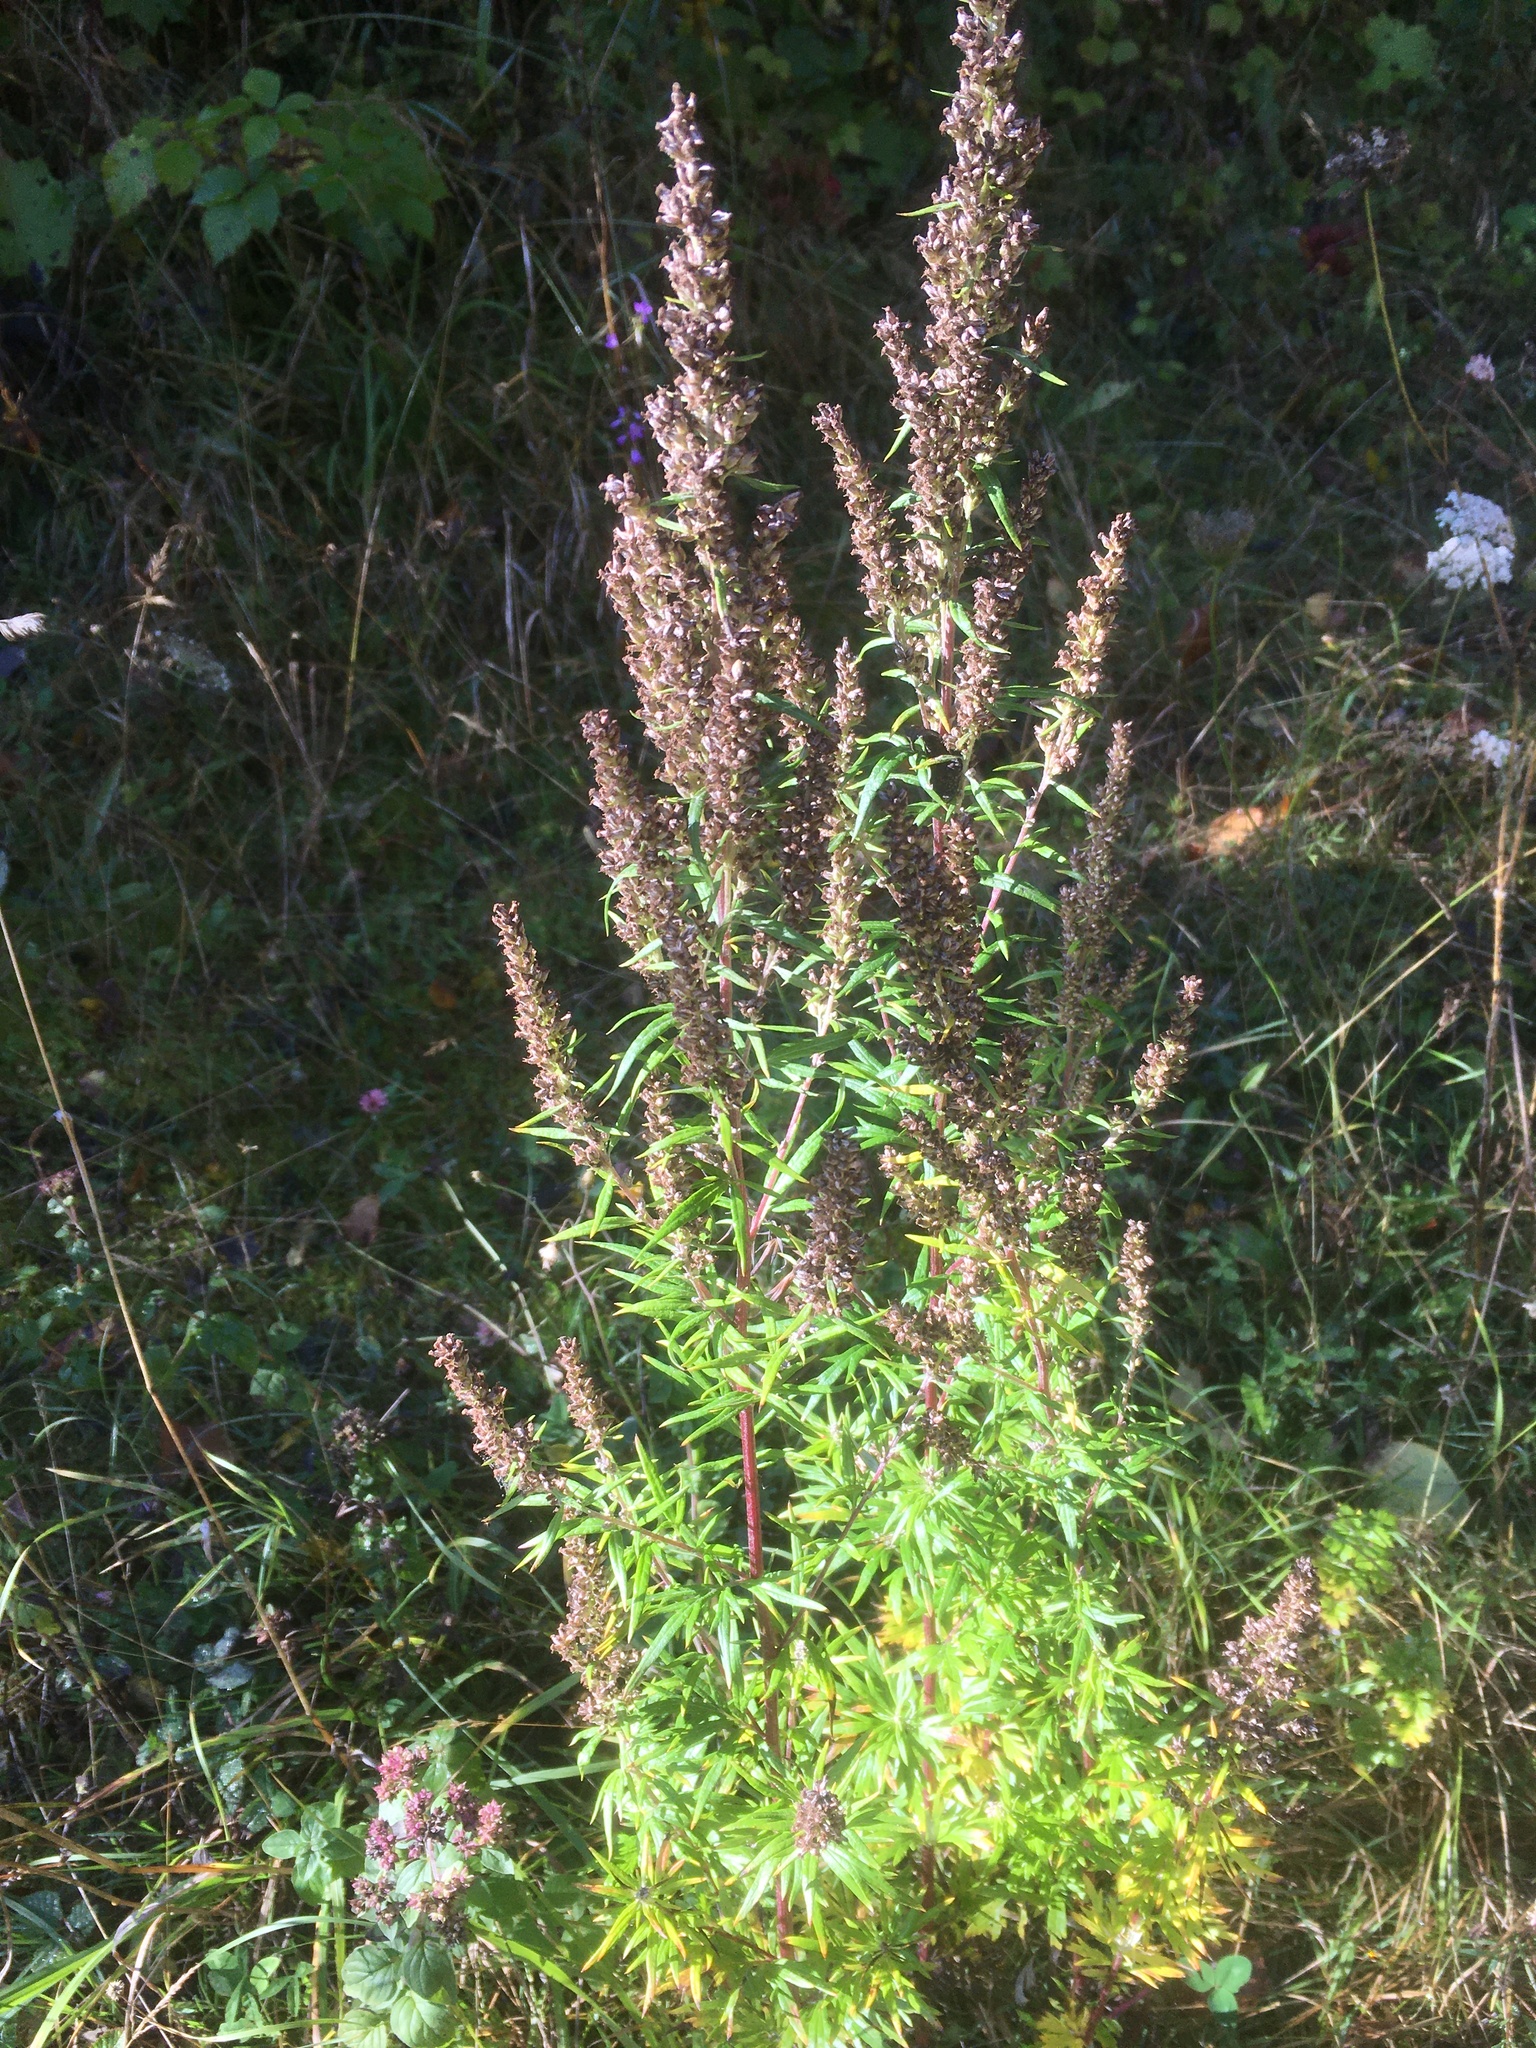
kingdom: Plantae
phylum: Tracheophyta
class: Magnoliopsida
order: Asterales
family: Asteraceae
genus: Artemisia
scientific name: Artemisia vulgaris
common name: Mugwort
